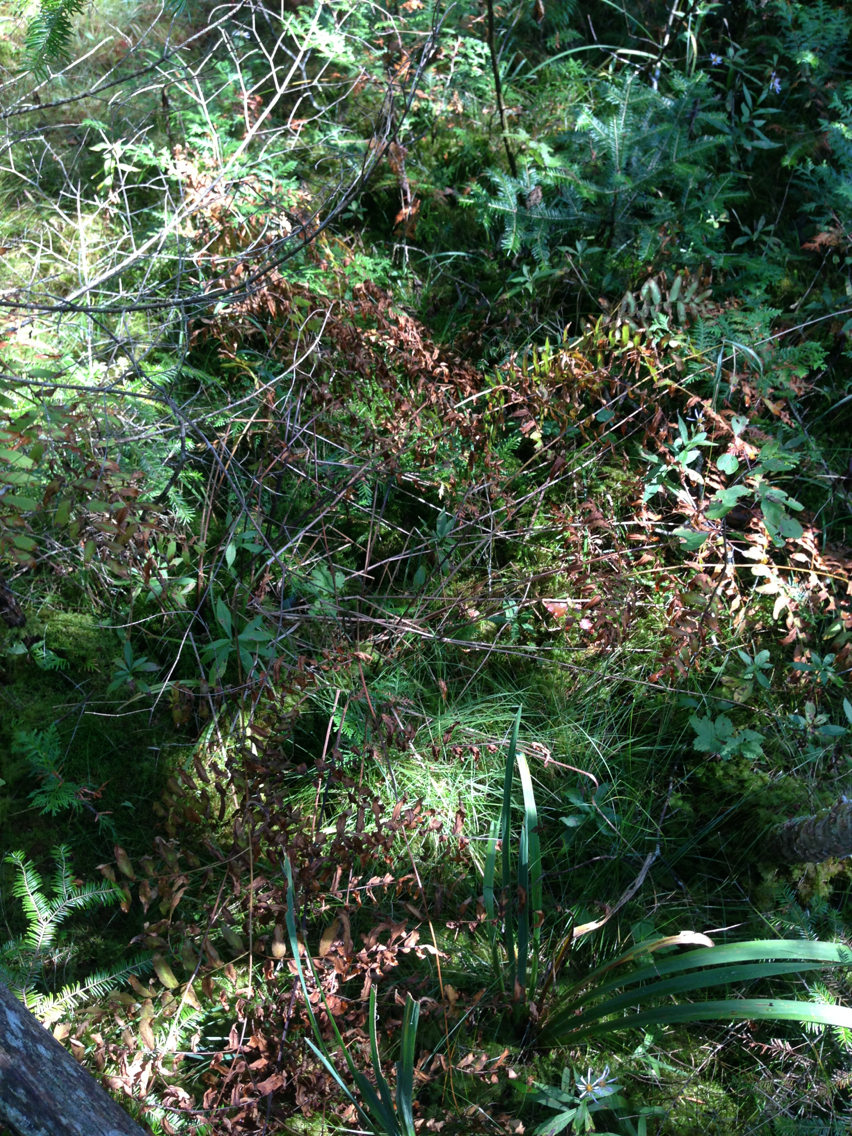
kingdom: Plantae
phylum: Tracheophyta
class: Polypodiopsida
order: Osmundales
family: Osmundaceae
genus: Osmunda
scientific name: Osmunda spectabilis
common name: American royal fern
